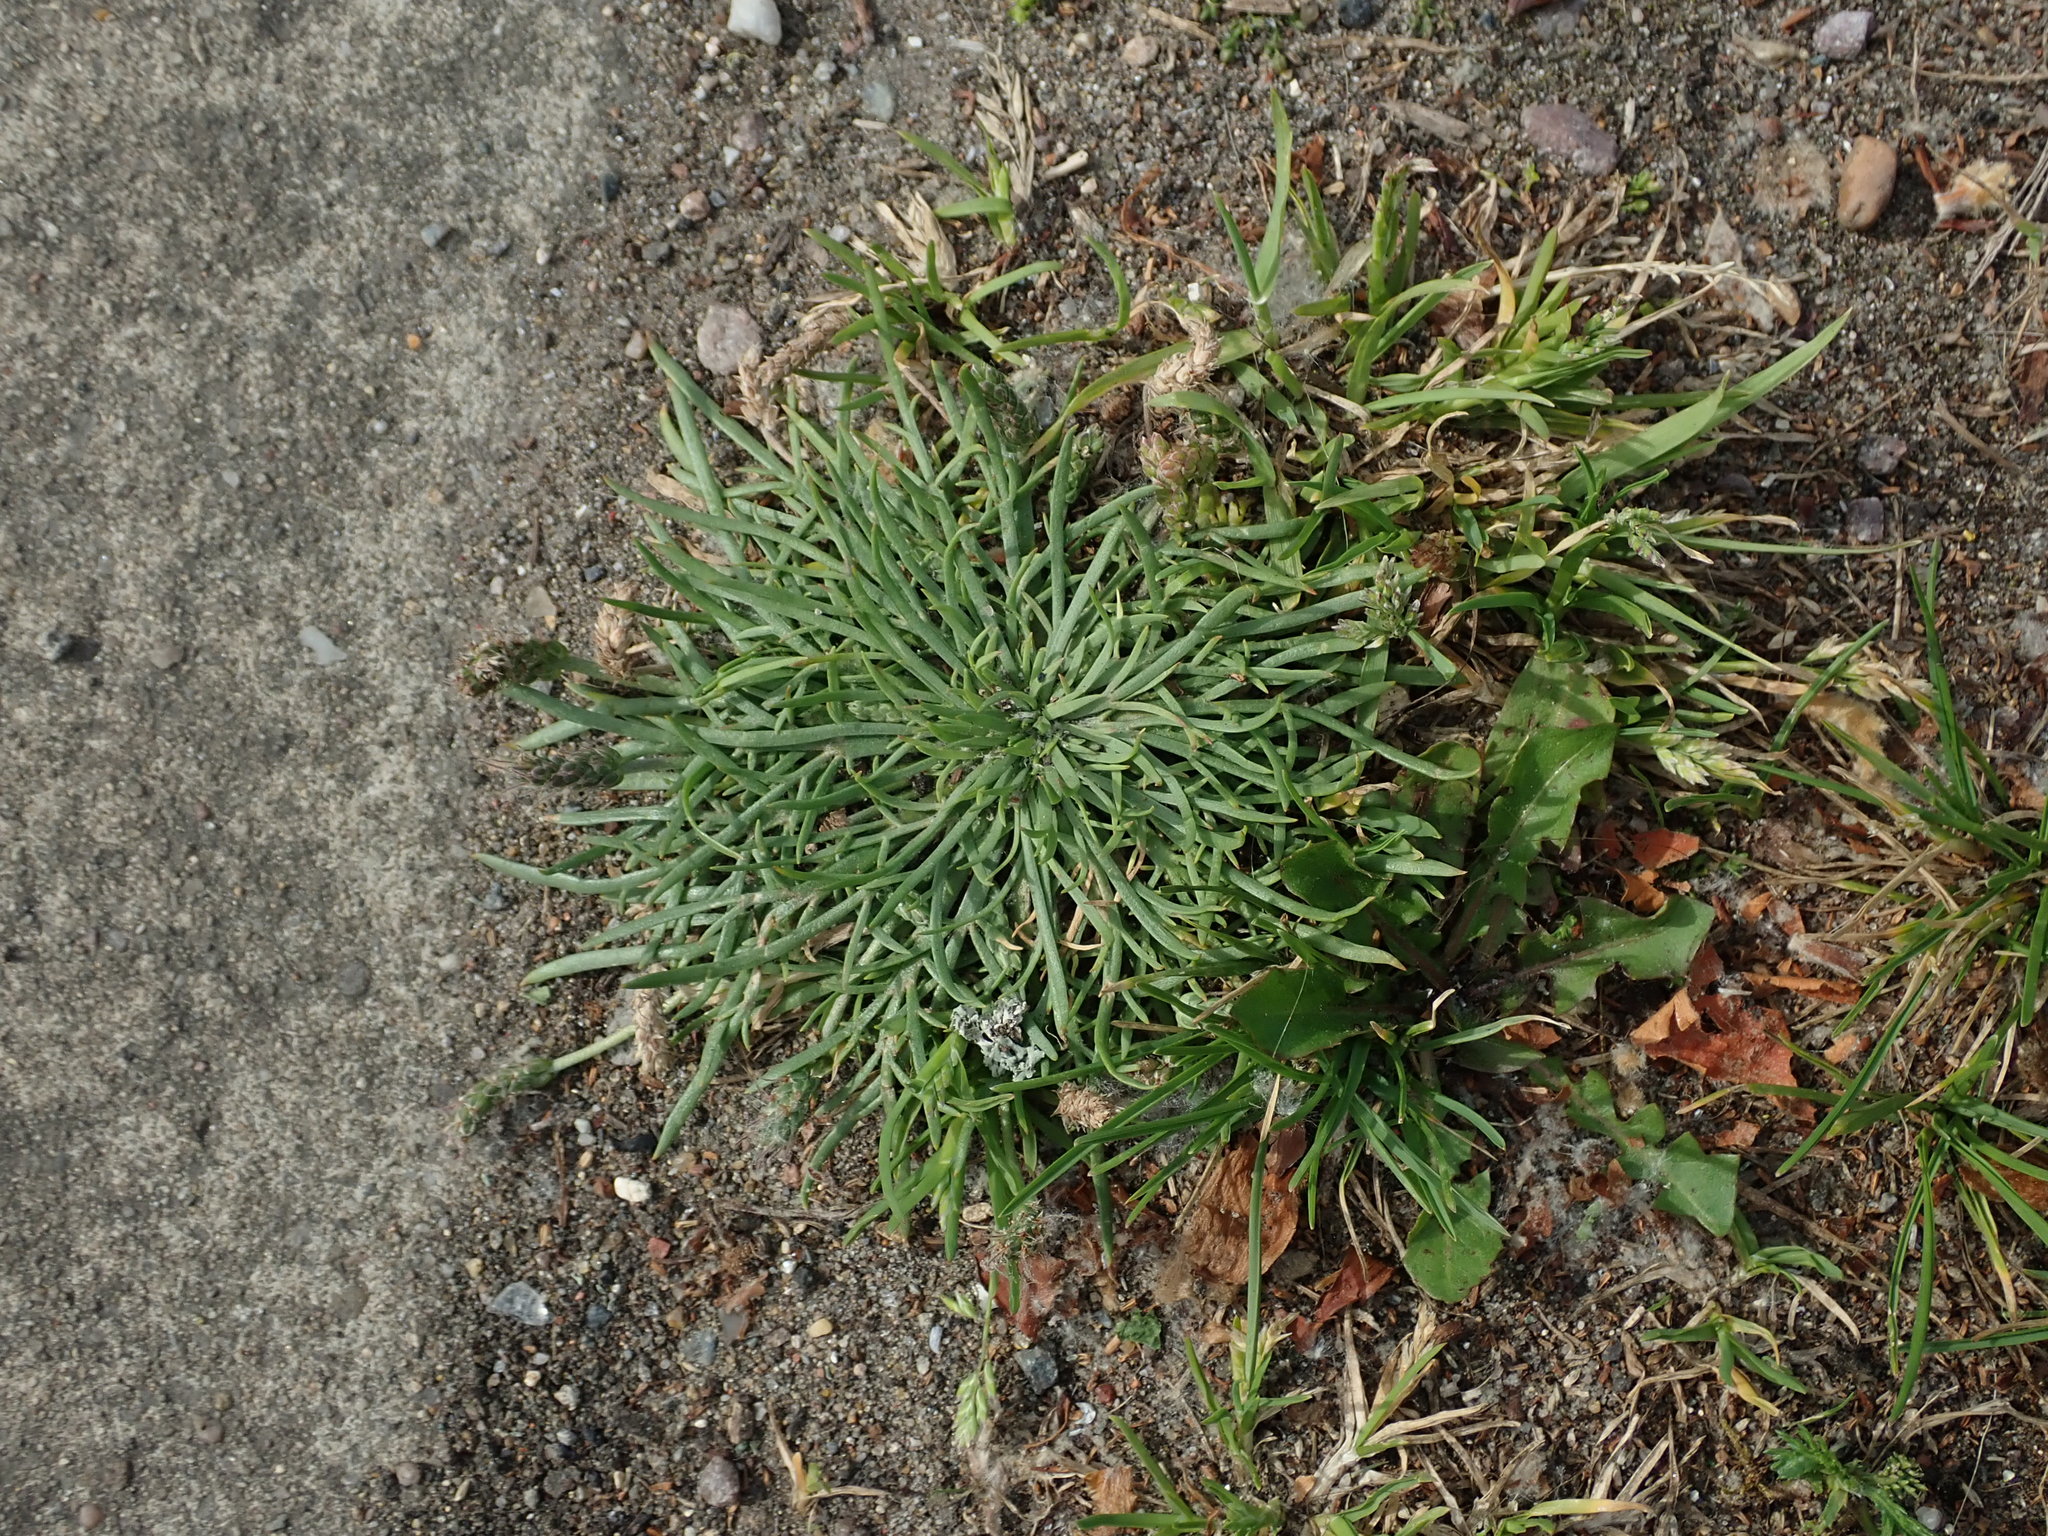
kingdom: Plantae
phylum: Tracheophyta
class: Magnoliopsida
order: Lamiales
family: Plantaginaceae
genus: Plantago
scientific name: Plantago coronopus
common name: Buck's-horn plantain
